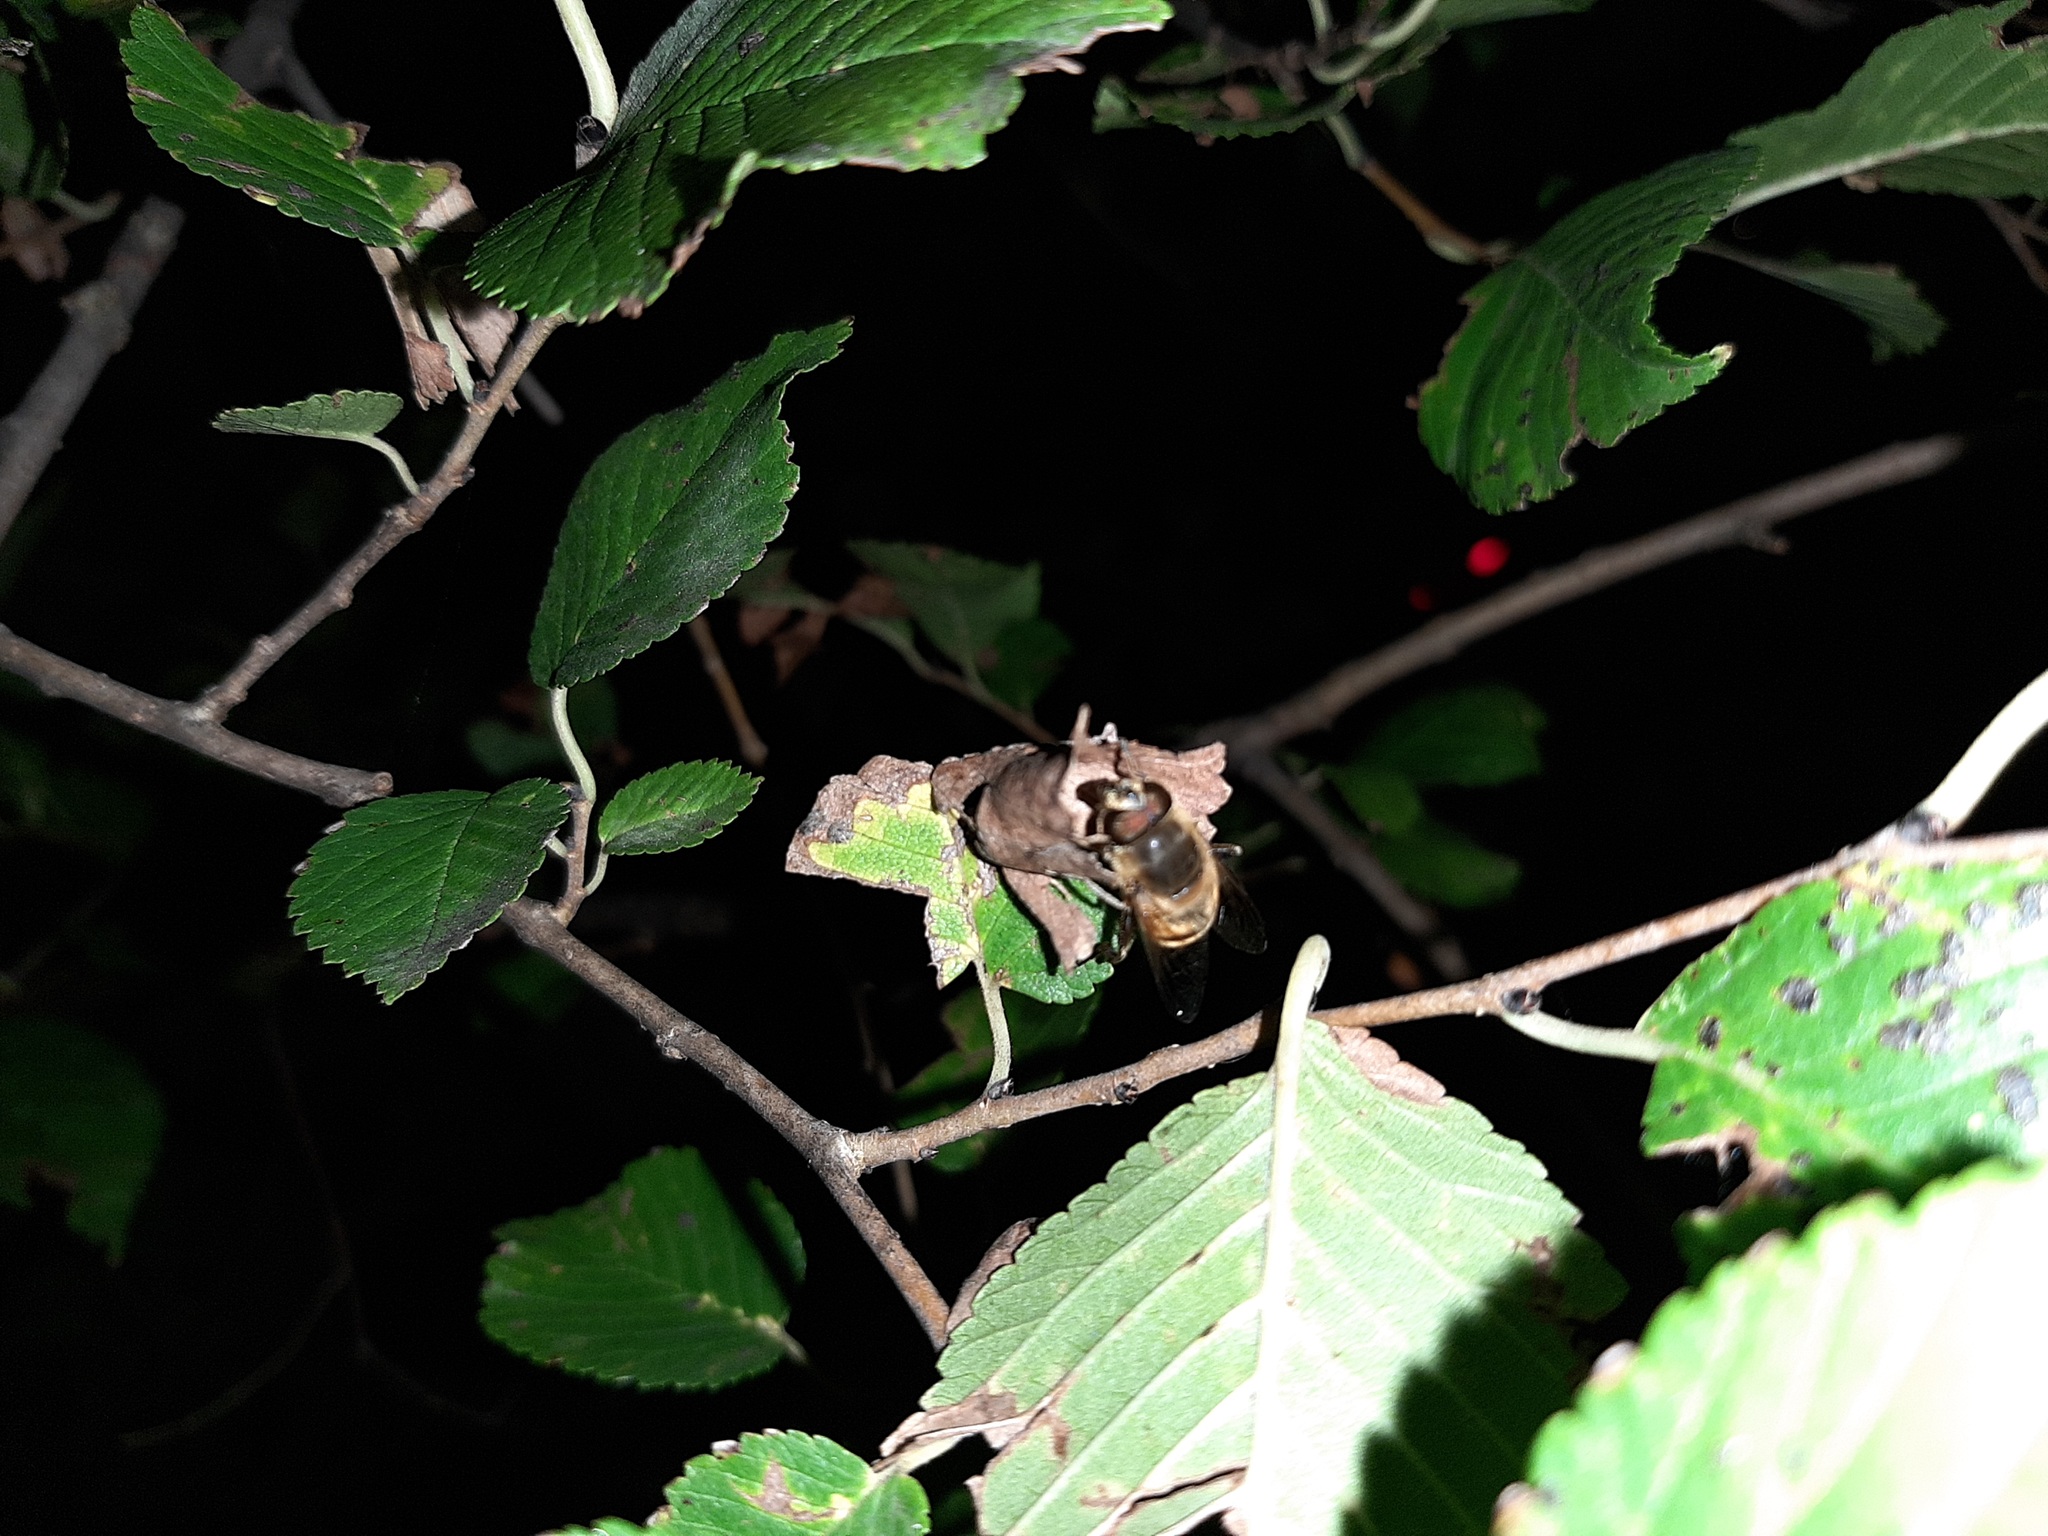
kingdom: Animalia
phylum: Arthropoda
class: Insecta
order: Diptera
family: Syrphidae
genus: Eristalis
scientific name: Eristalis tenax
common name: Drone fly
